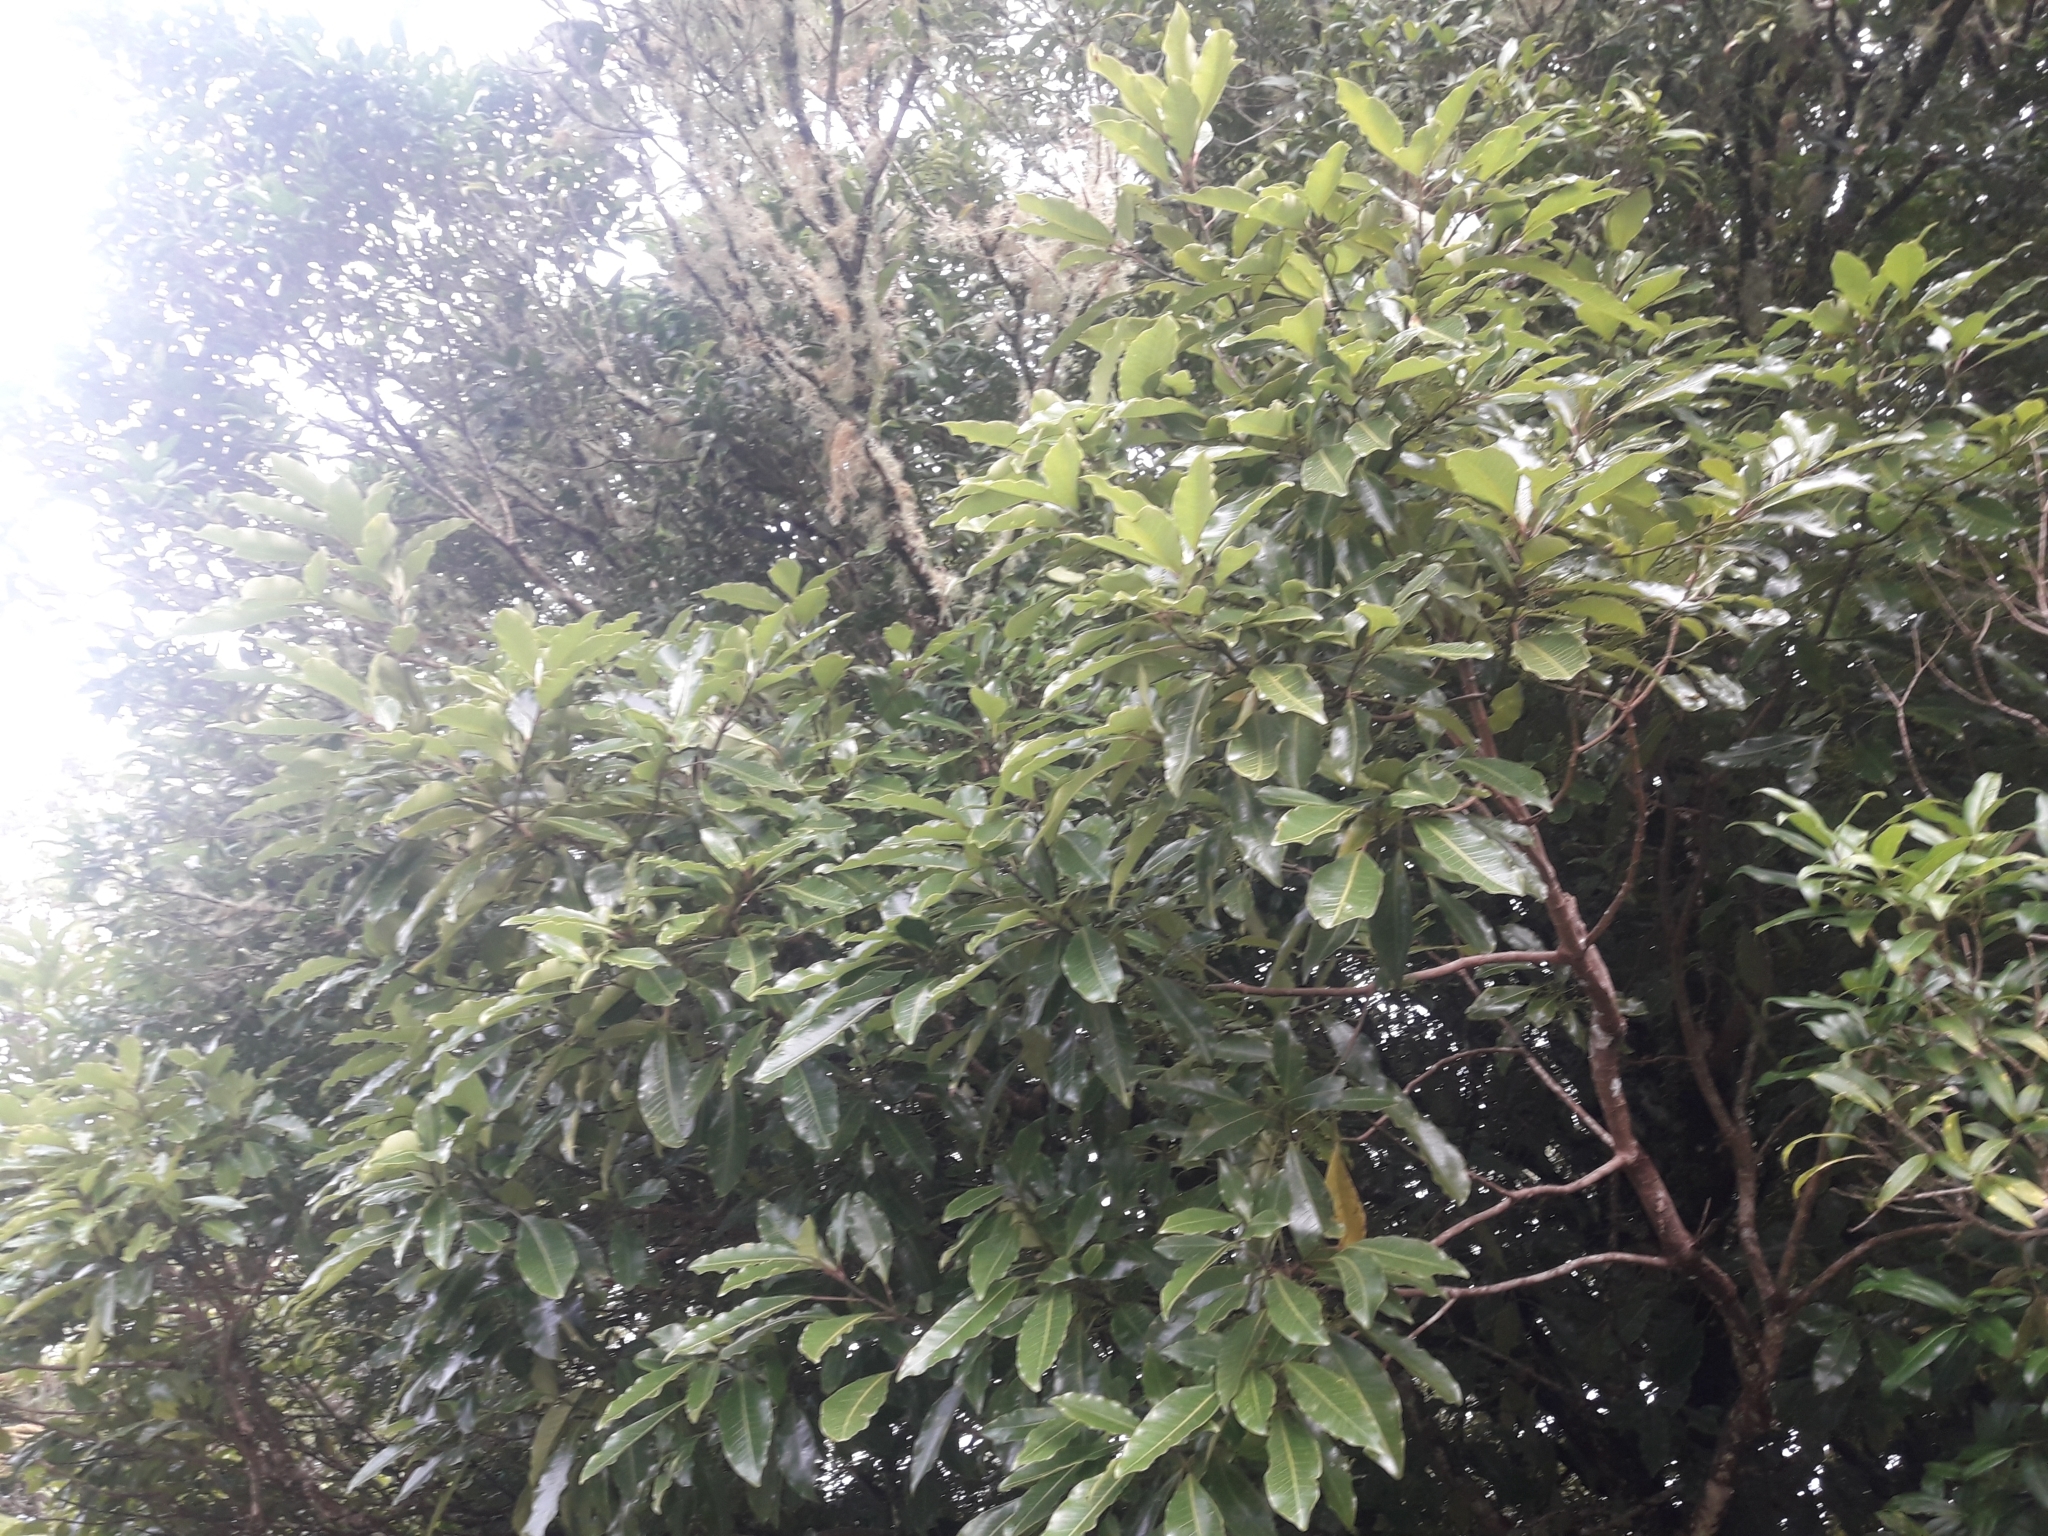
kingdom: Plantae
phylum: Tracheophyta
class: Magnoliopsida
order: Apiales
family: Araliaceae
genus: Raukaua
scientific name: Raukaua edgerleyi
